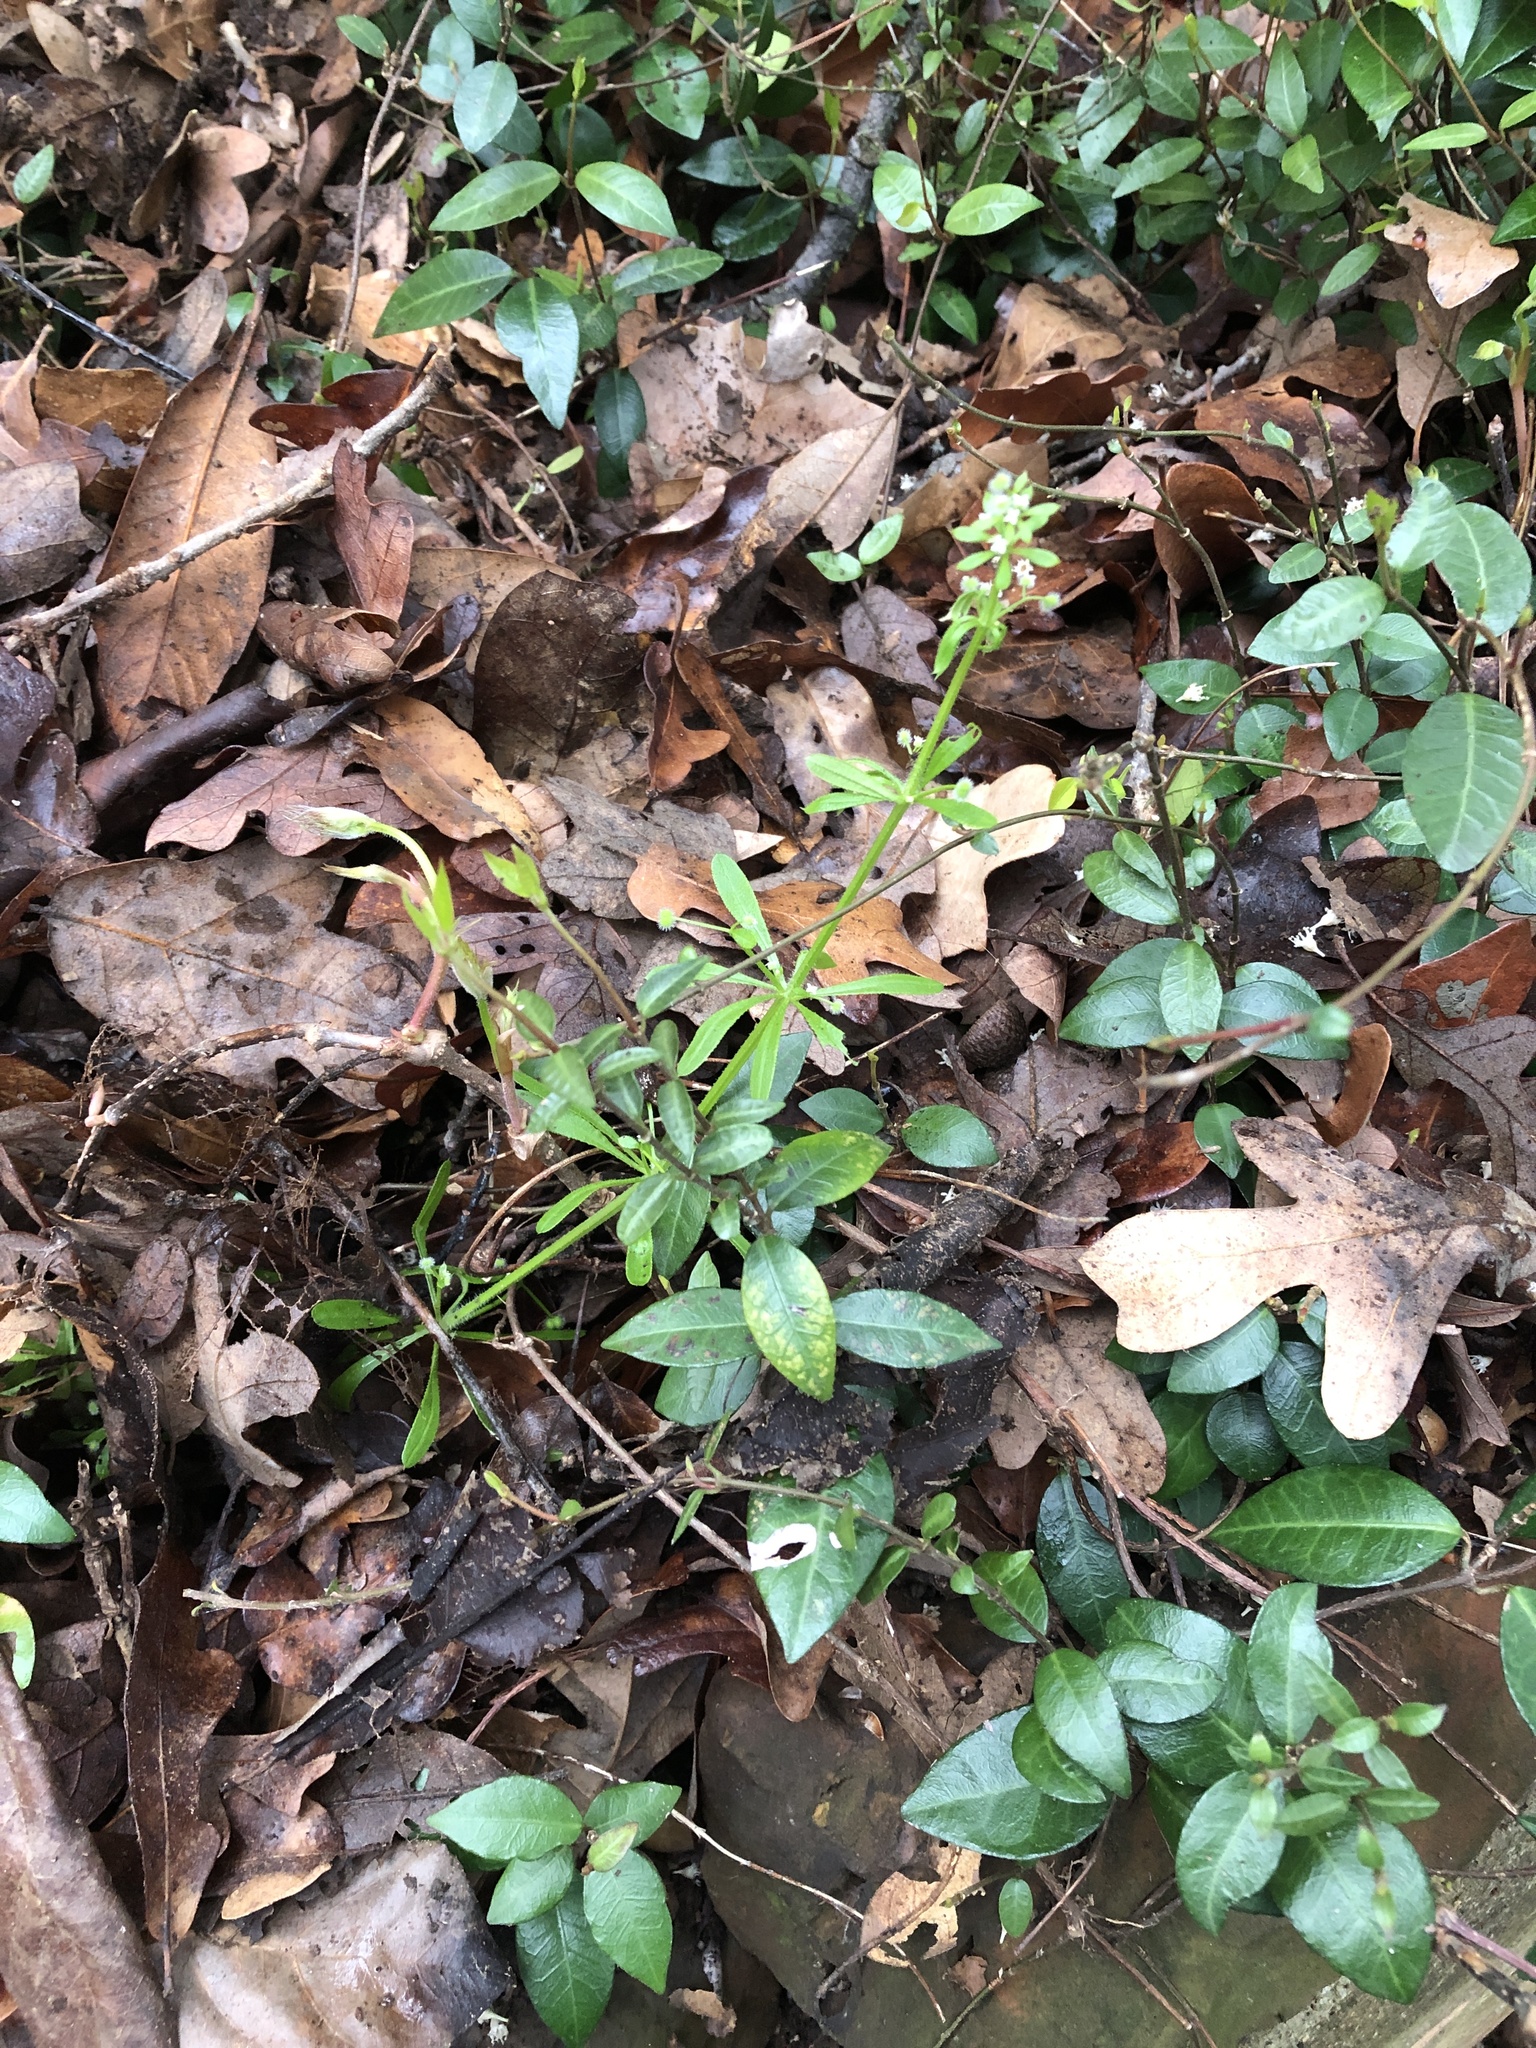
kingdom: Plantae
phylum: Tracheophyta
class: Magnoliopsida
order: Gentianales
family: Rubiaceae
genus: Galium
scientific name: Galium aparine
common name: Cleavers
